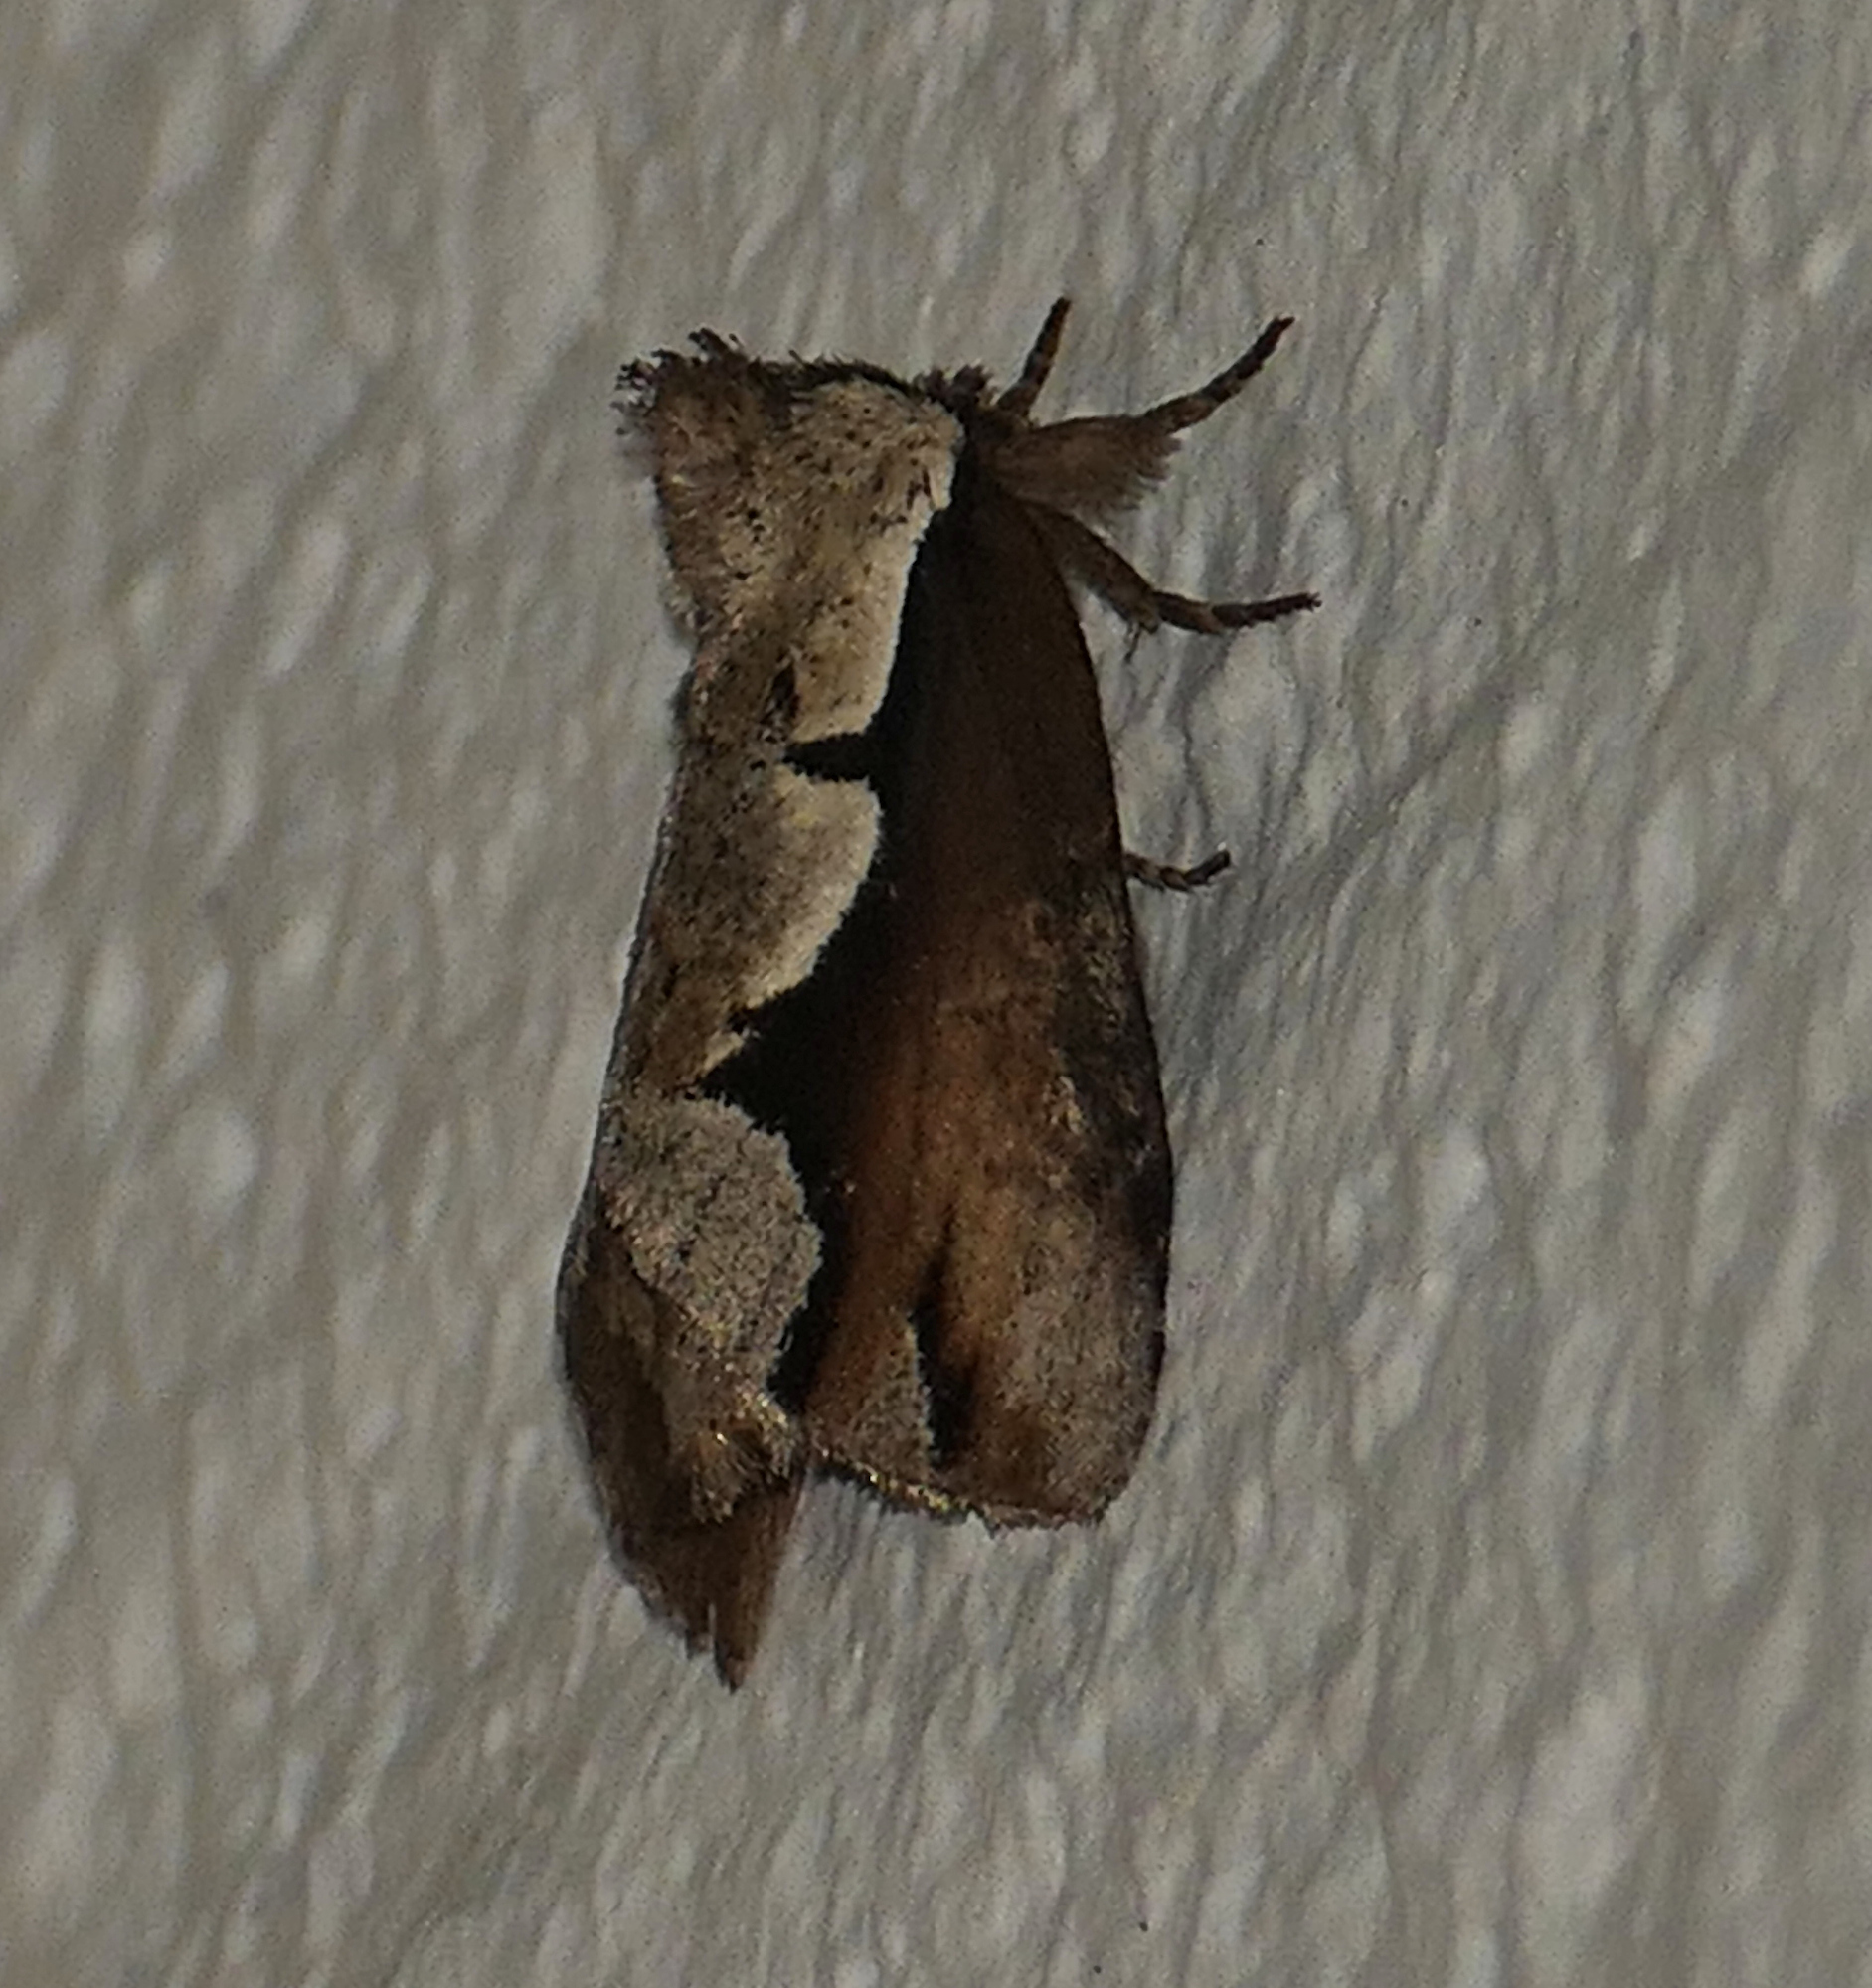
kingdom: Animalia
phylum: Arthropoda
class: Insecta
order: Lepidoptera
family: Notodontidae
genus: Nerice
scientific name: Nerice bidentata
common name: Double-toothed prominent
